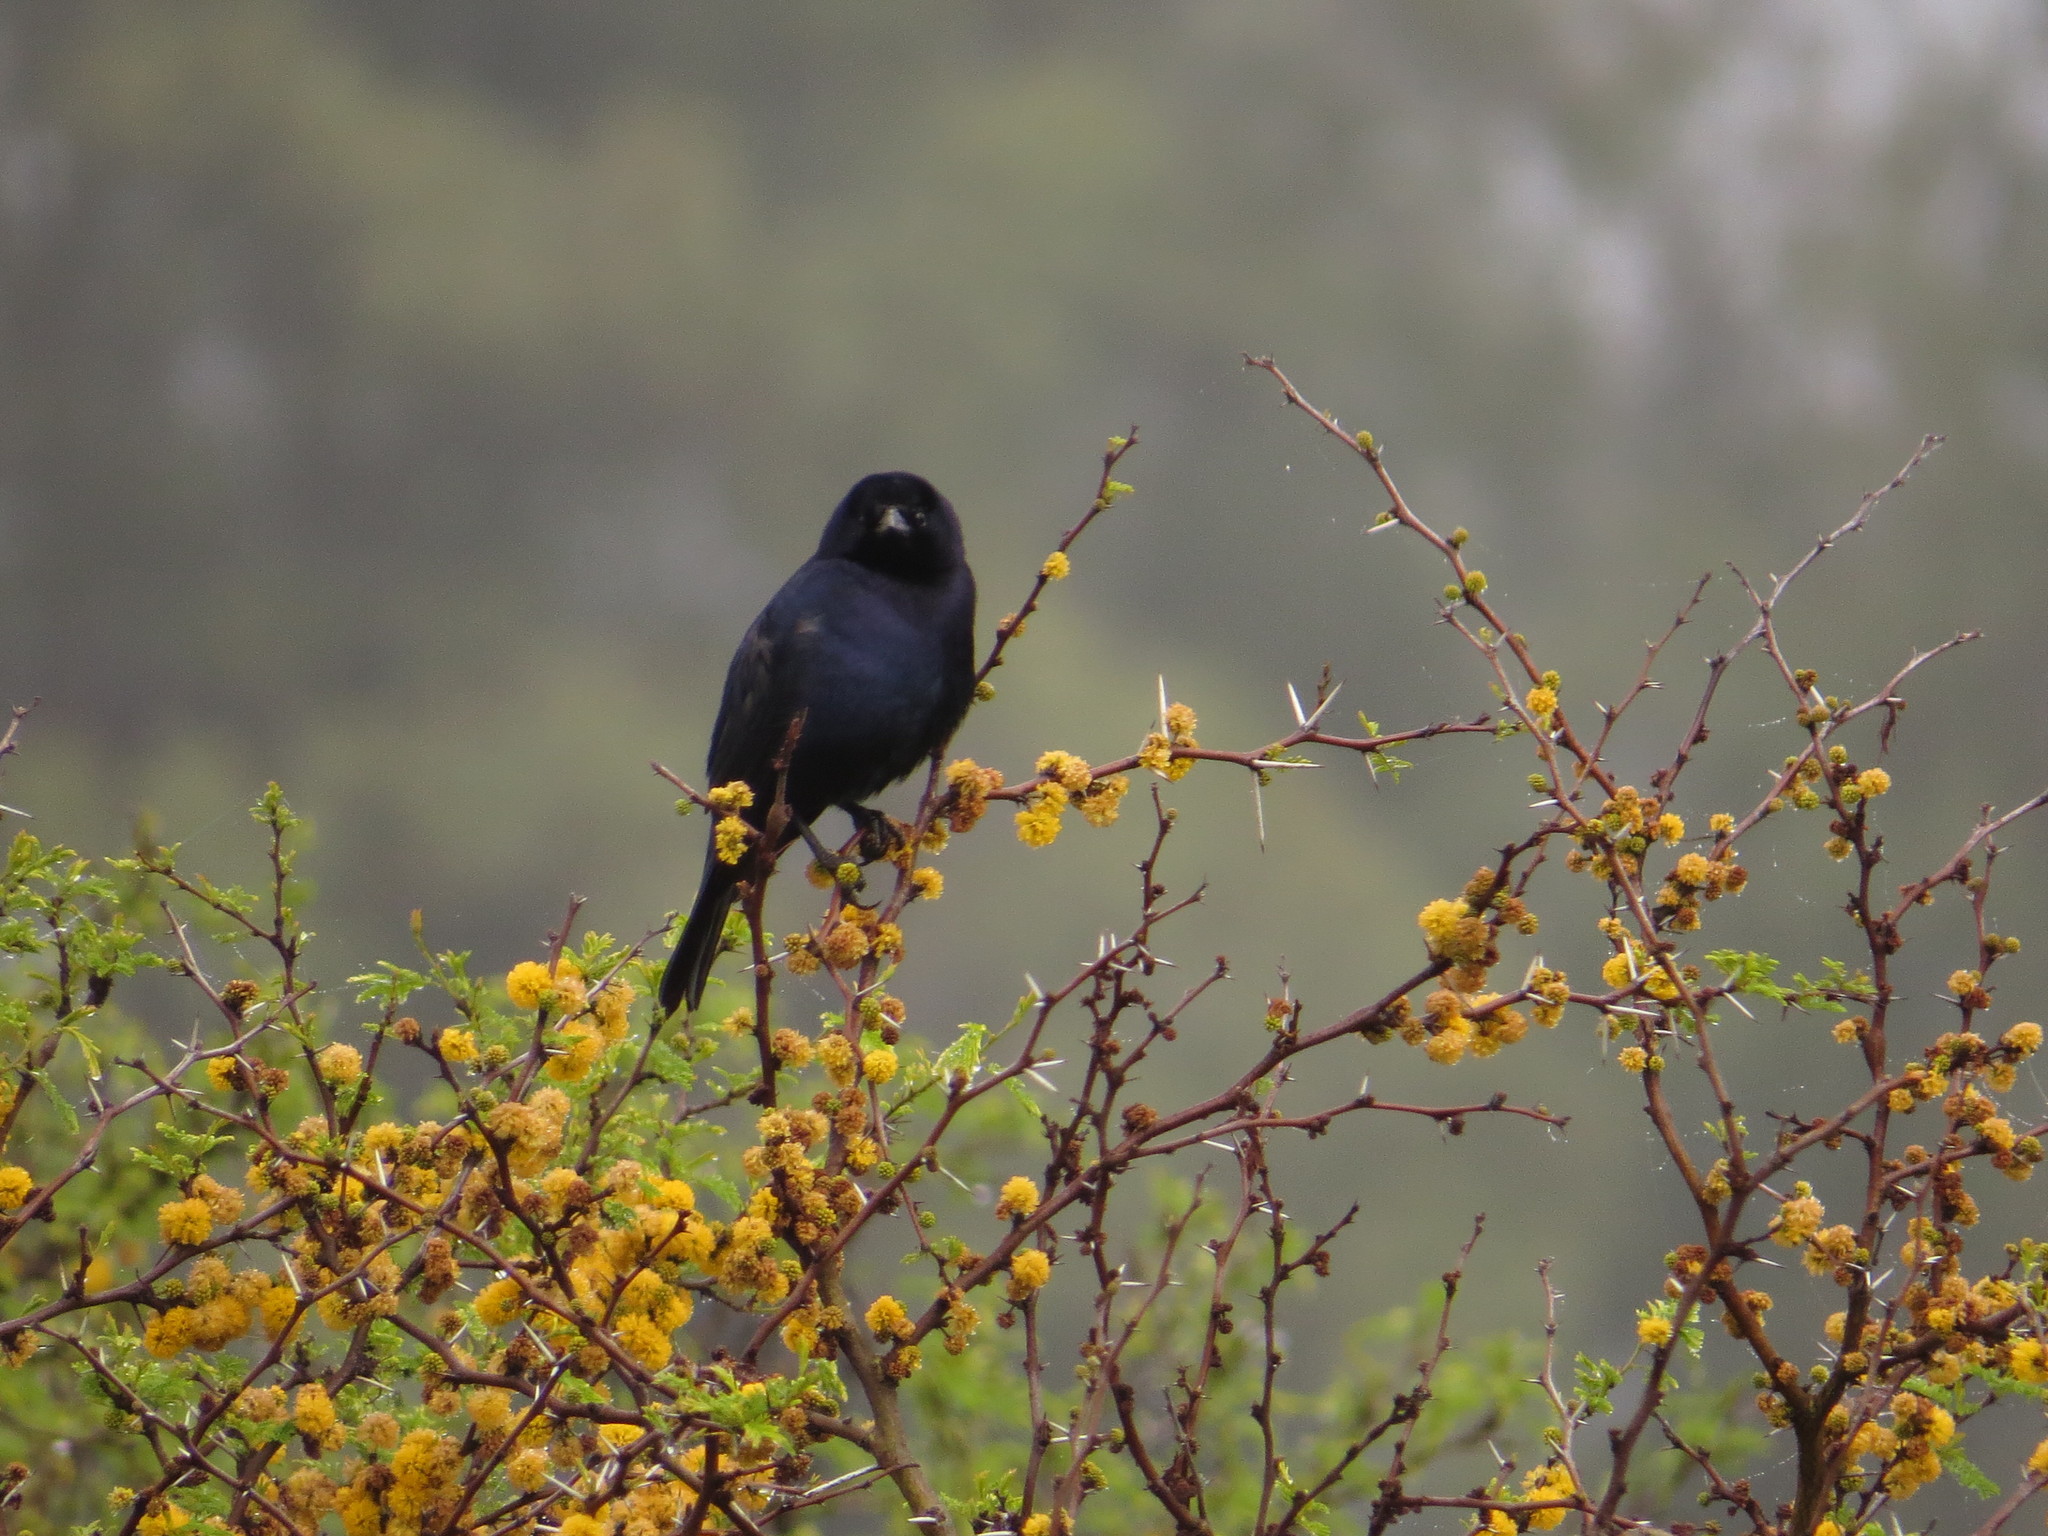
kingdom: Animalia
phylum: Chordata
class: Aves
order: Passeriformes
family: Icteridae
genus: Molothrus
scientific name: Molothrus bonariensis
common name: Shiny cowbird
